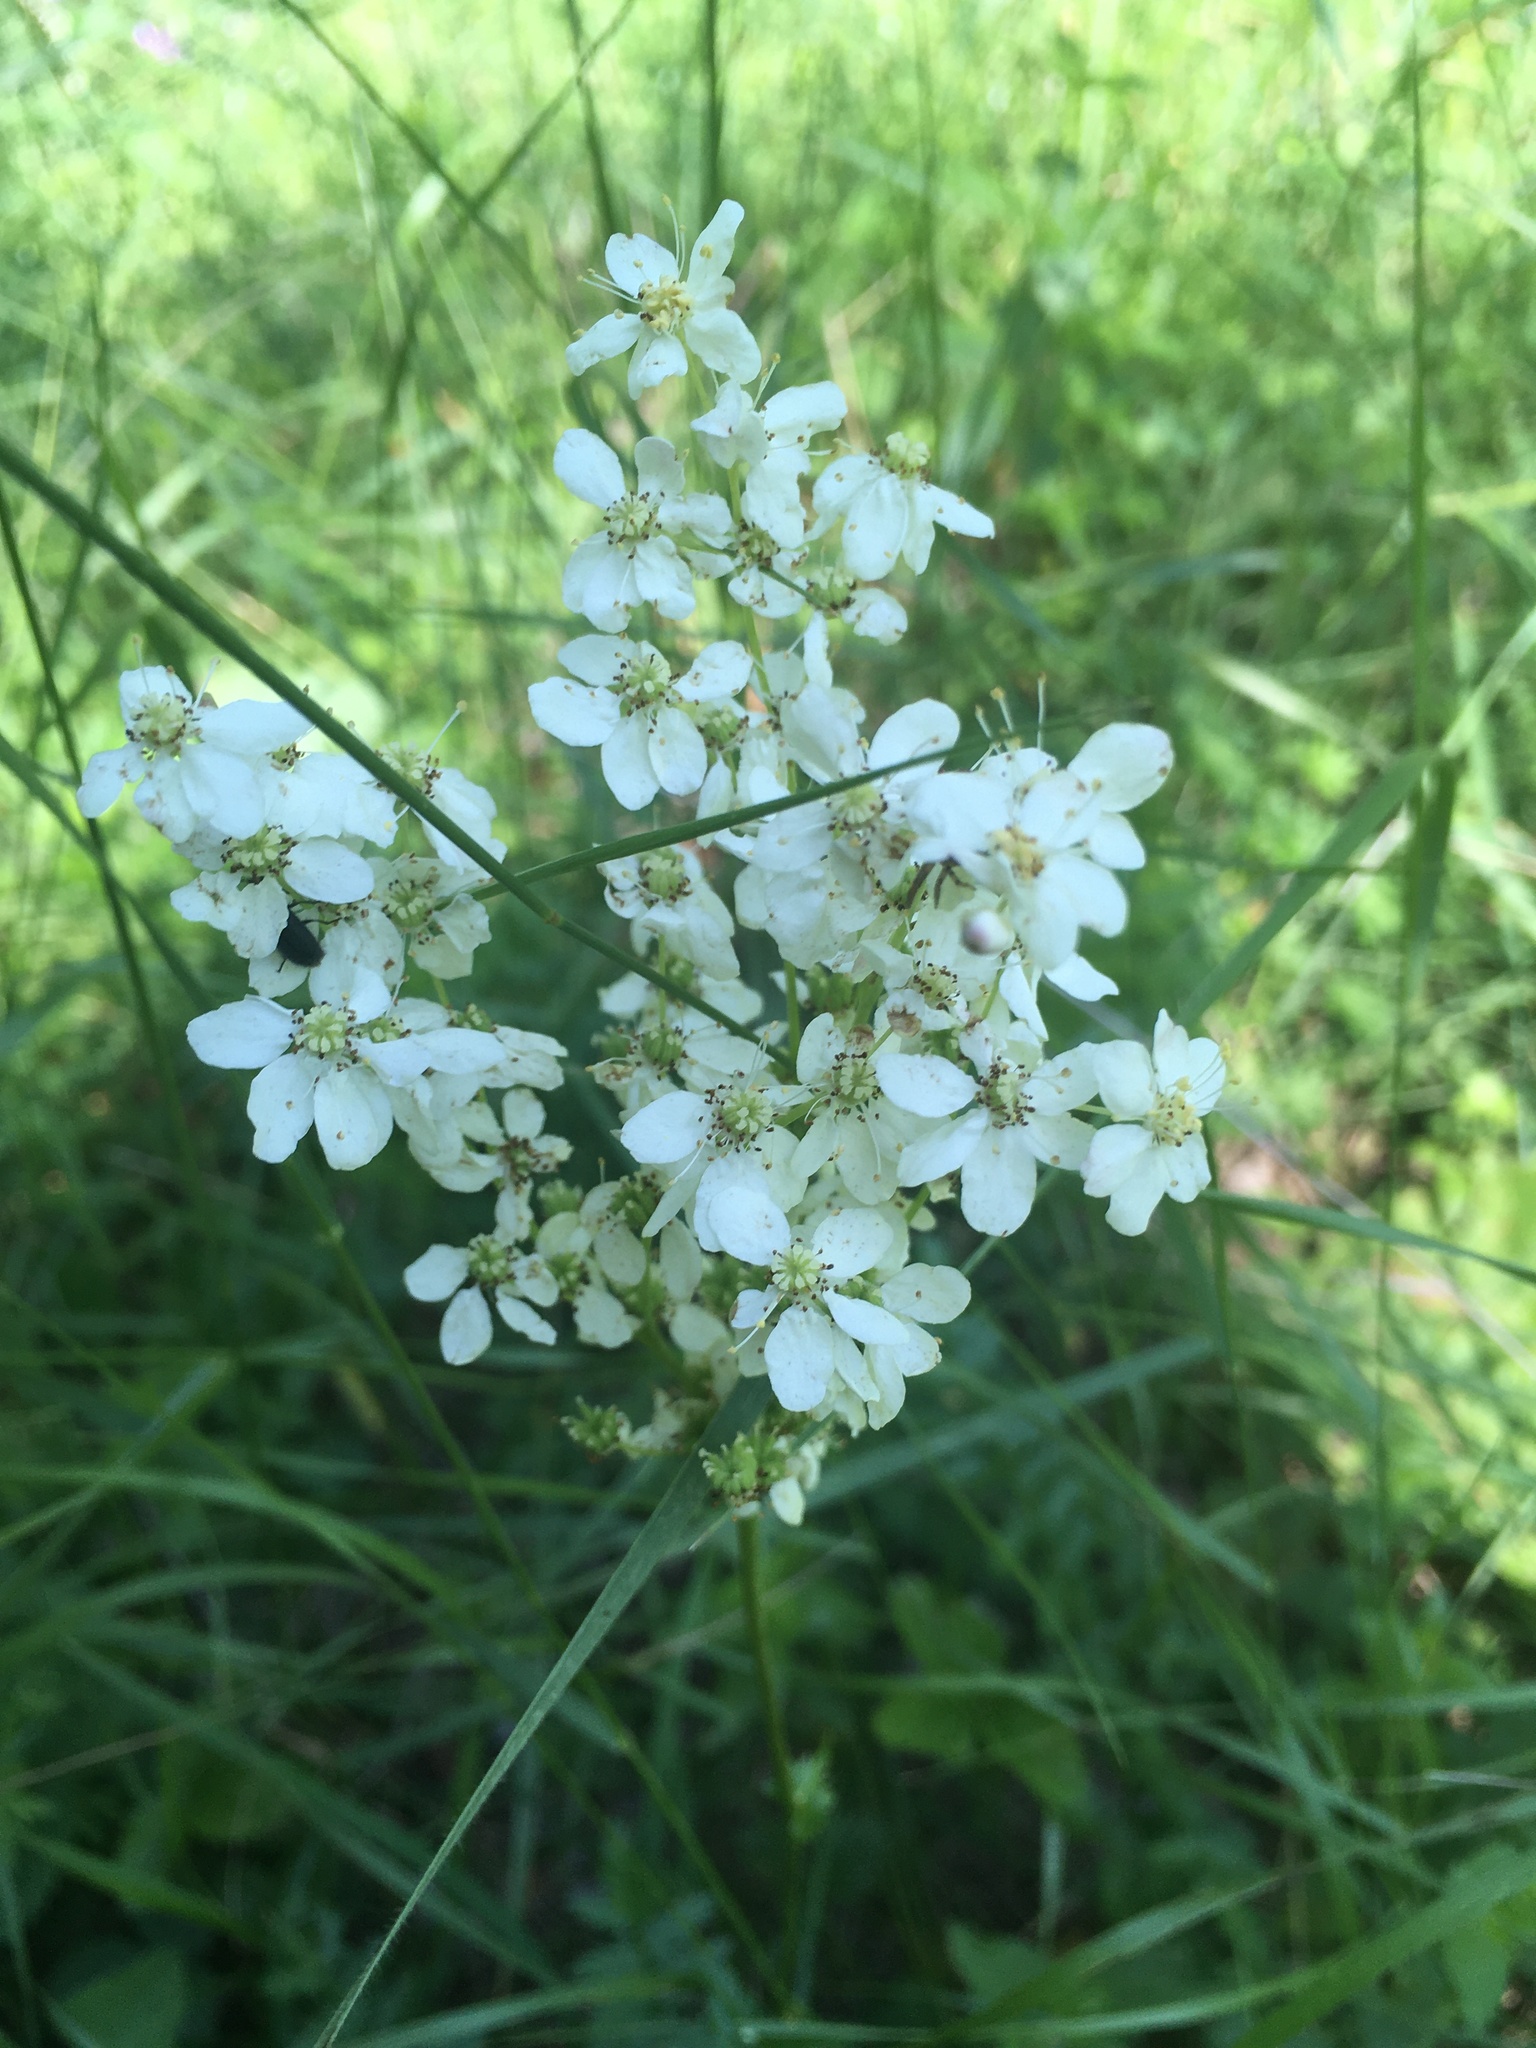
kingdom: Plantae
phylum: Tracheophyta
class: Magnoliopsida
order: Rosales
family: Rosaceae
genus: Filipendula
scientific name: Filipendula vulgaris
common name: Dropwort
